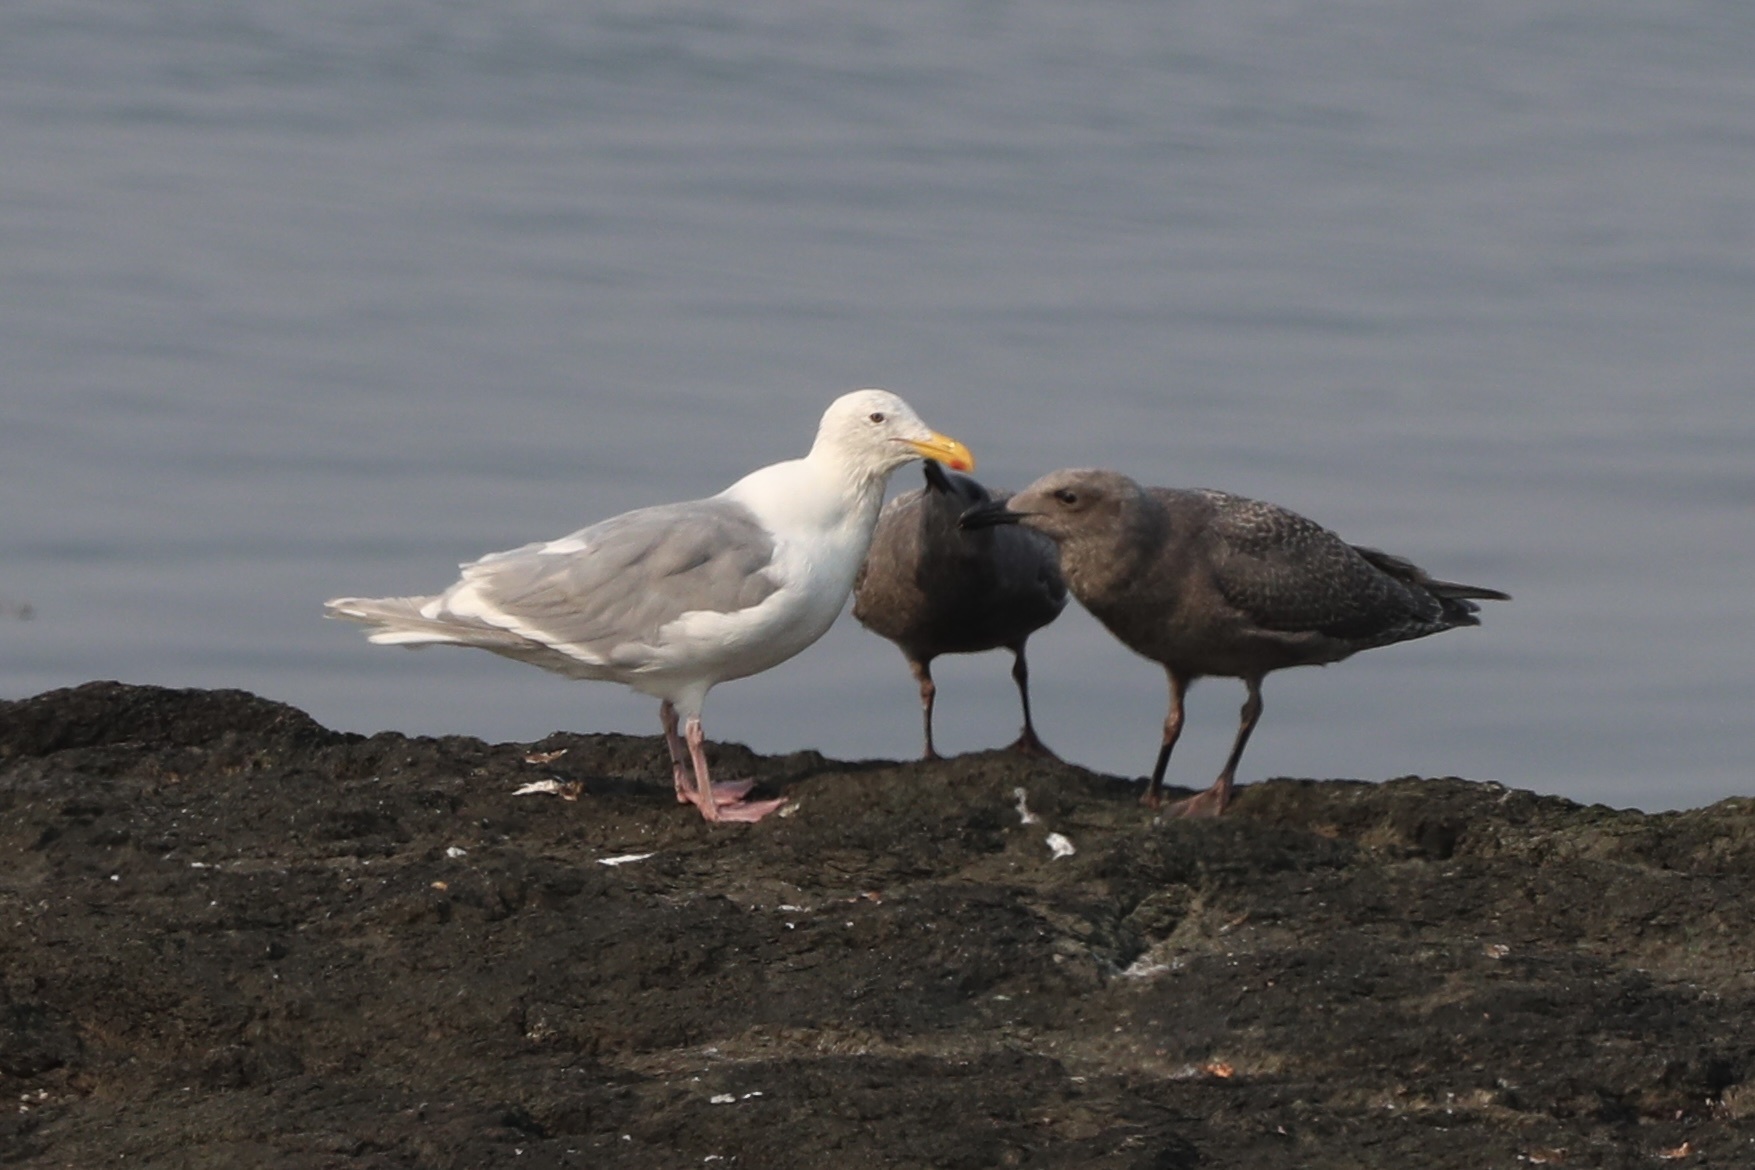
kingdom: Animalia
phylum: Chordata
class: Aves
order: Charadriiformes
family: Laridae
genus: Larus
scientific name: Larus glaucescens
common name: Glaucous-winged gull
